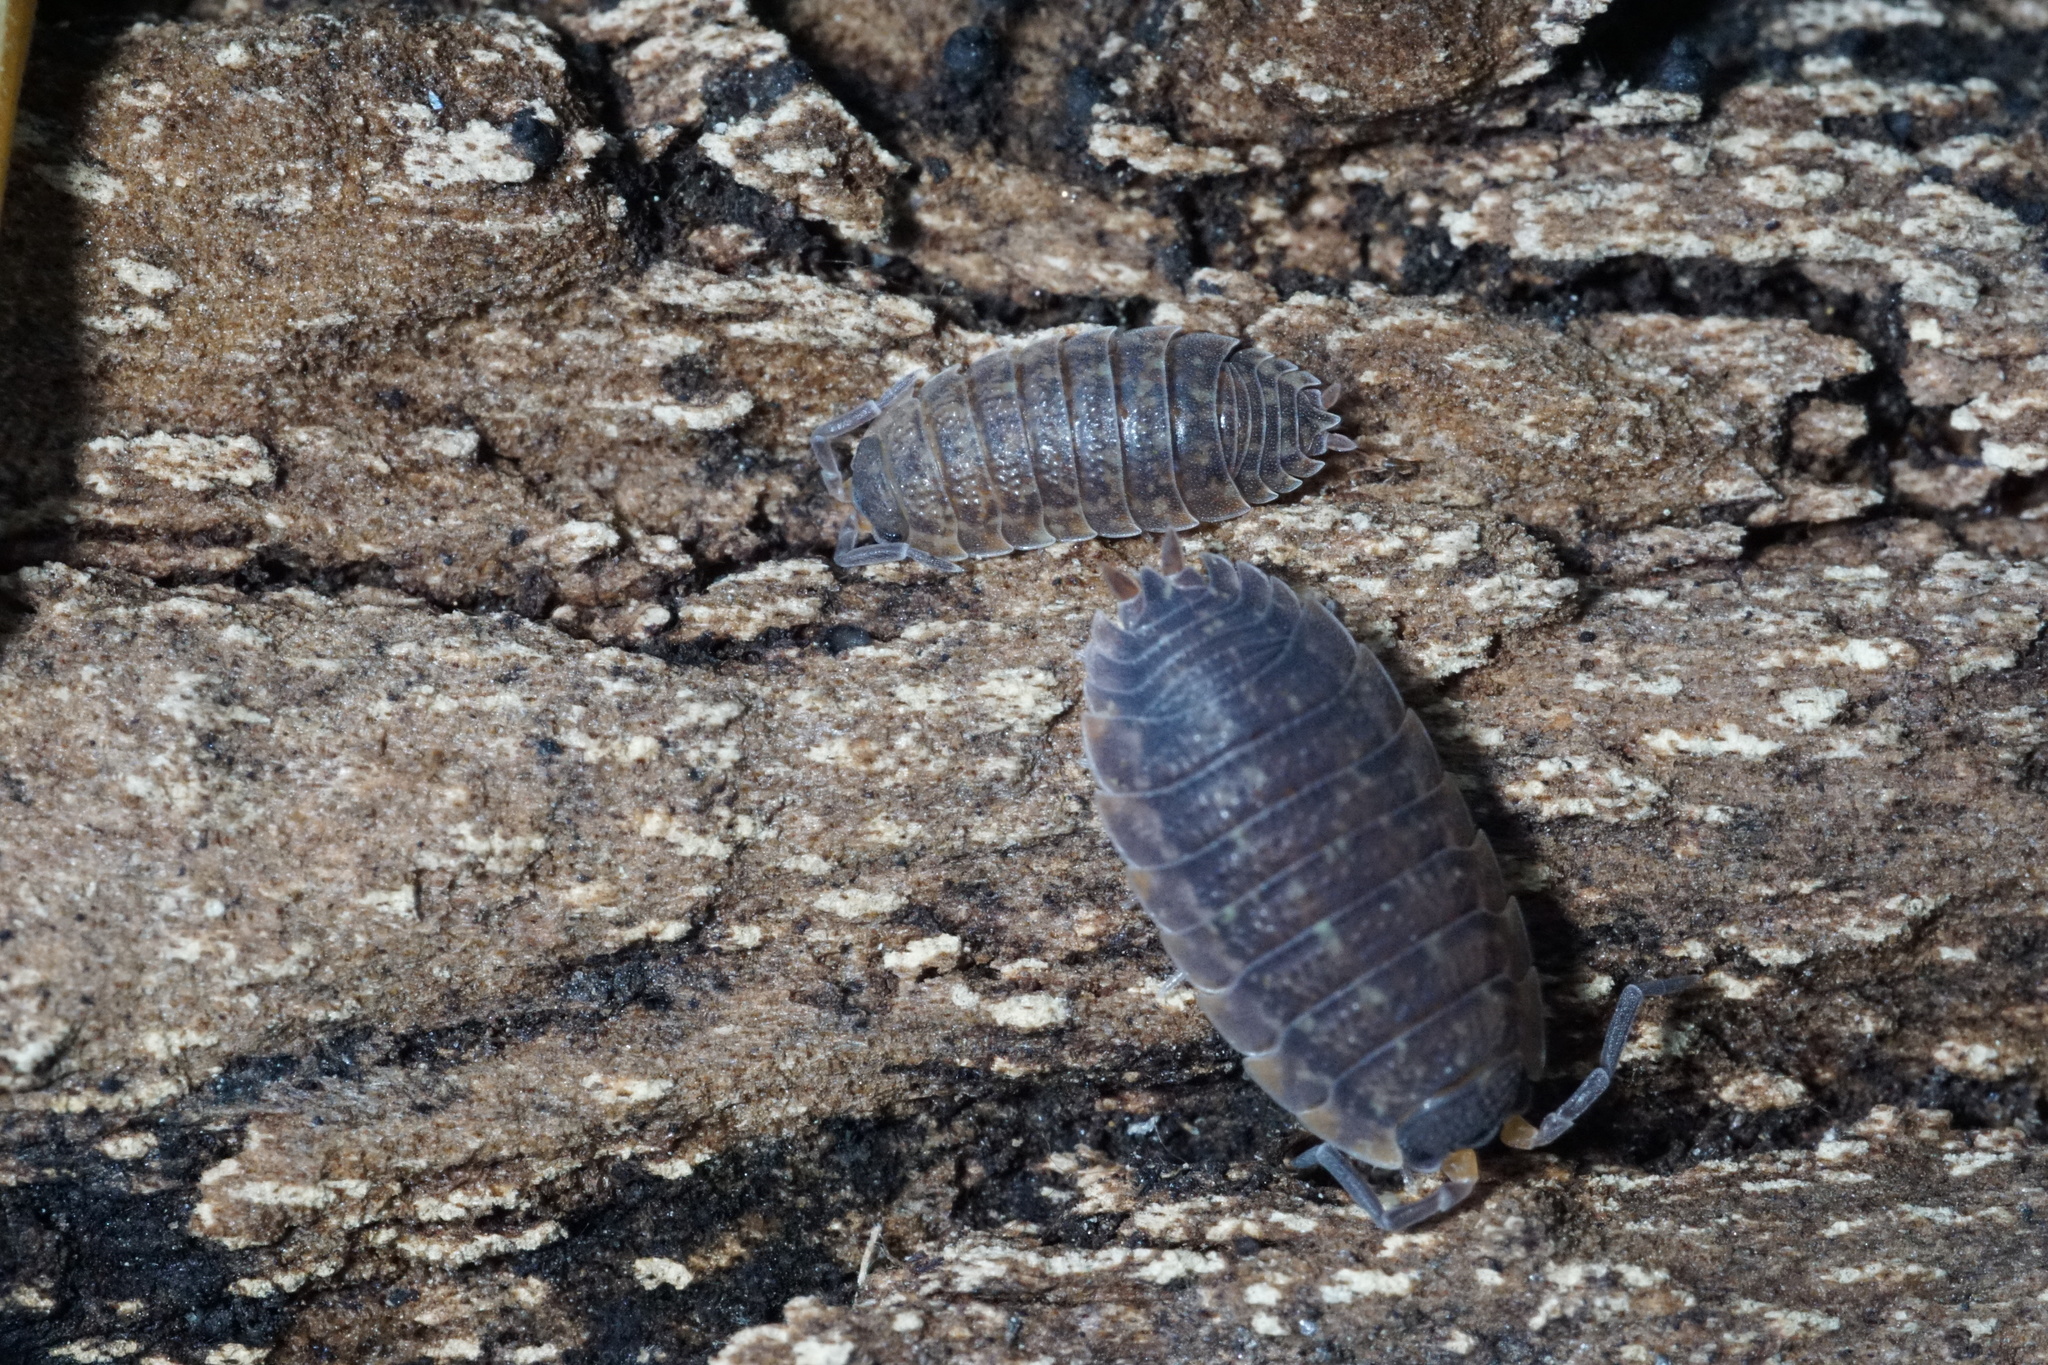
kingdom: Animalia
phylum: Arthropoda
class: Malacostraca
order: Isopoda
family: Porcellionidae
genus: Porcellio
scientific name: Porcellio scaber
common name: Common rough woodlouse
